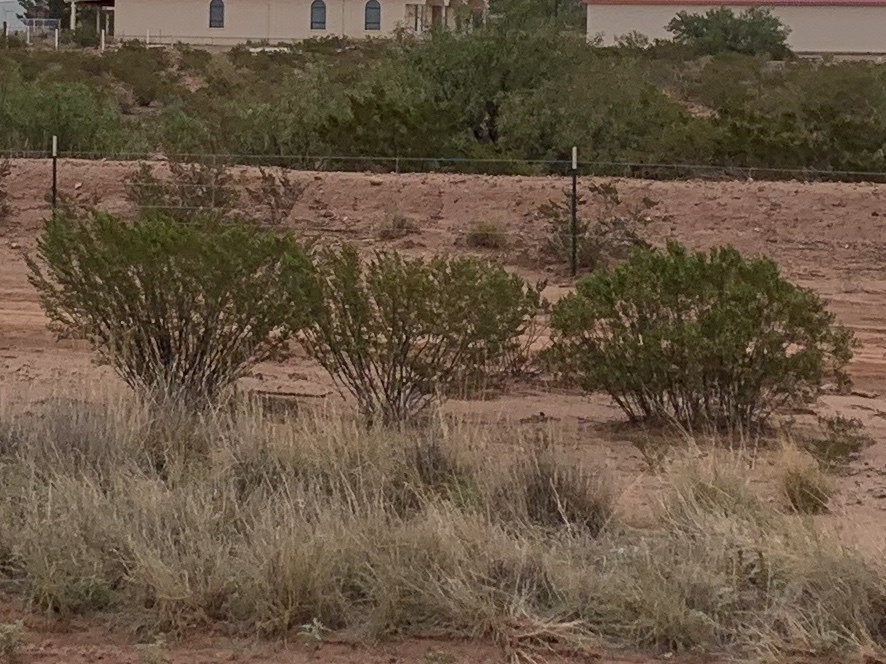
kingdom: Plantae
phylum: Tracheophyta
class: Magnoliopsida
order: Zygophyllales
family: Zygophyllaceae
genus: Larrea
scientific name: Larrea tridentata
